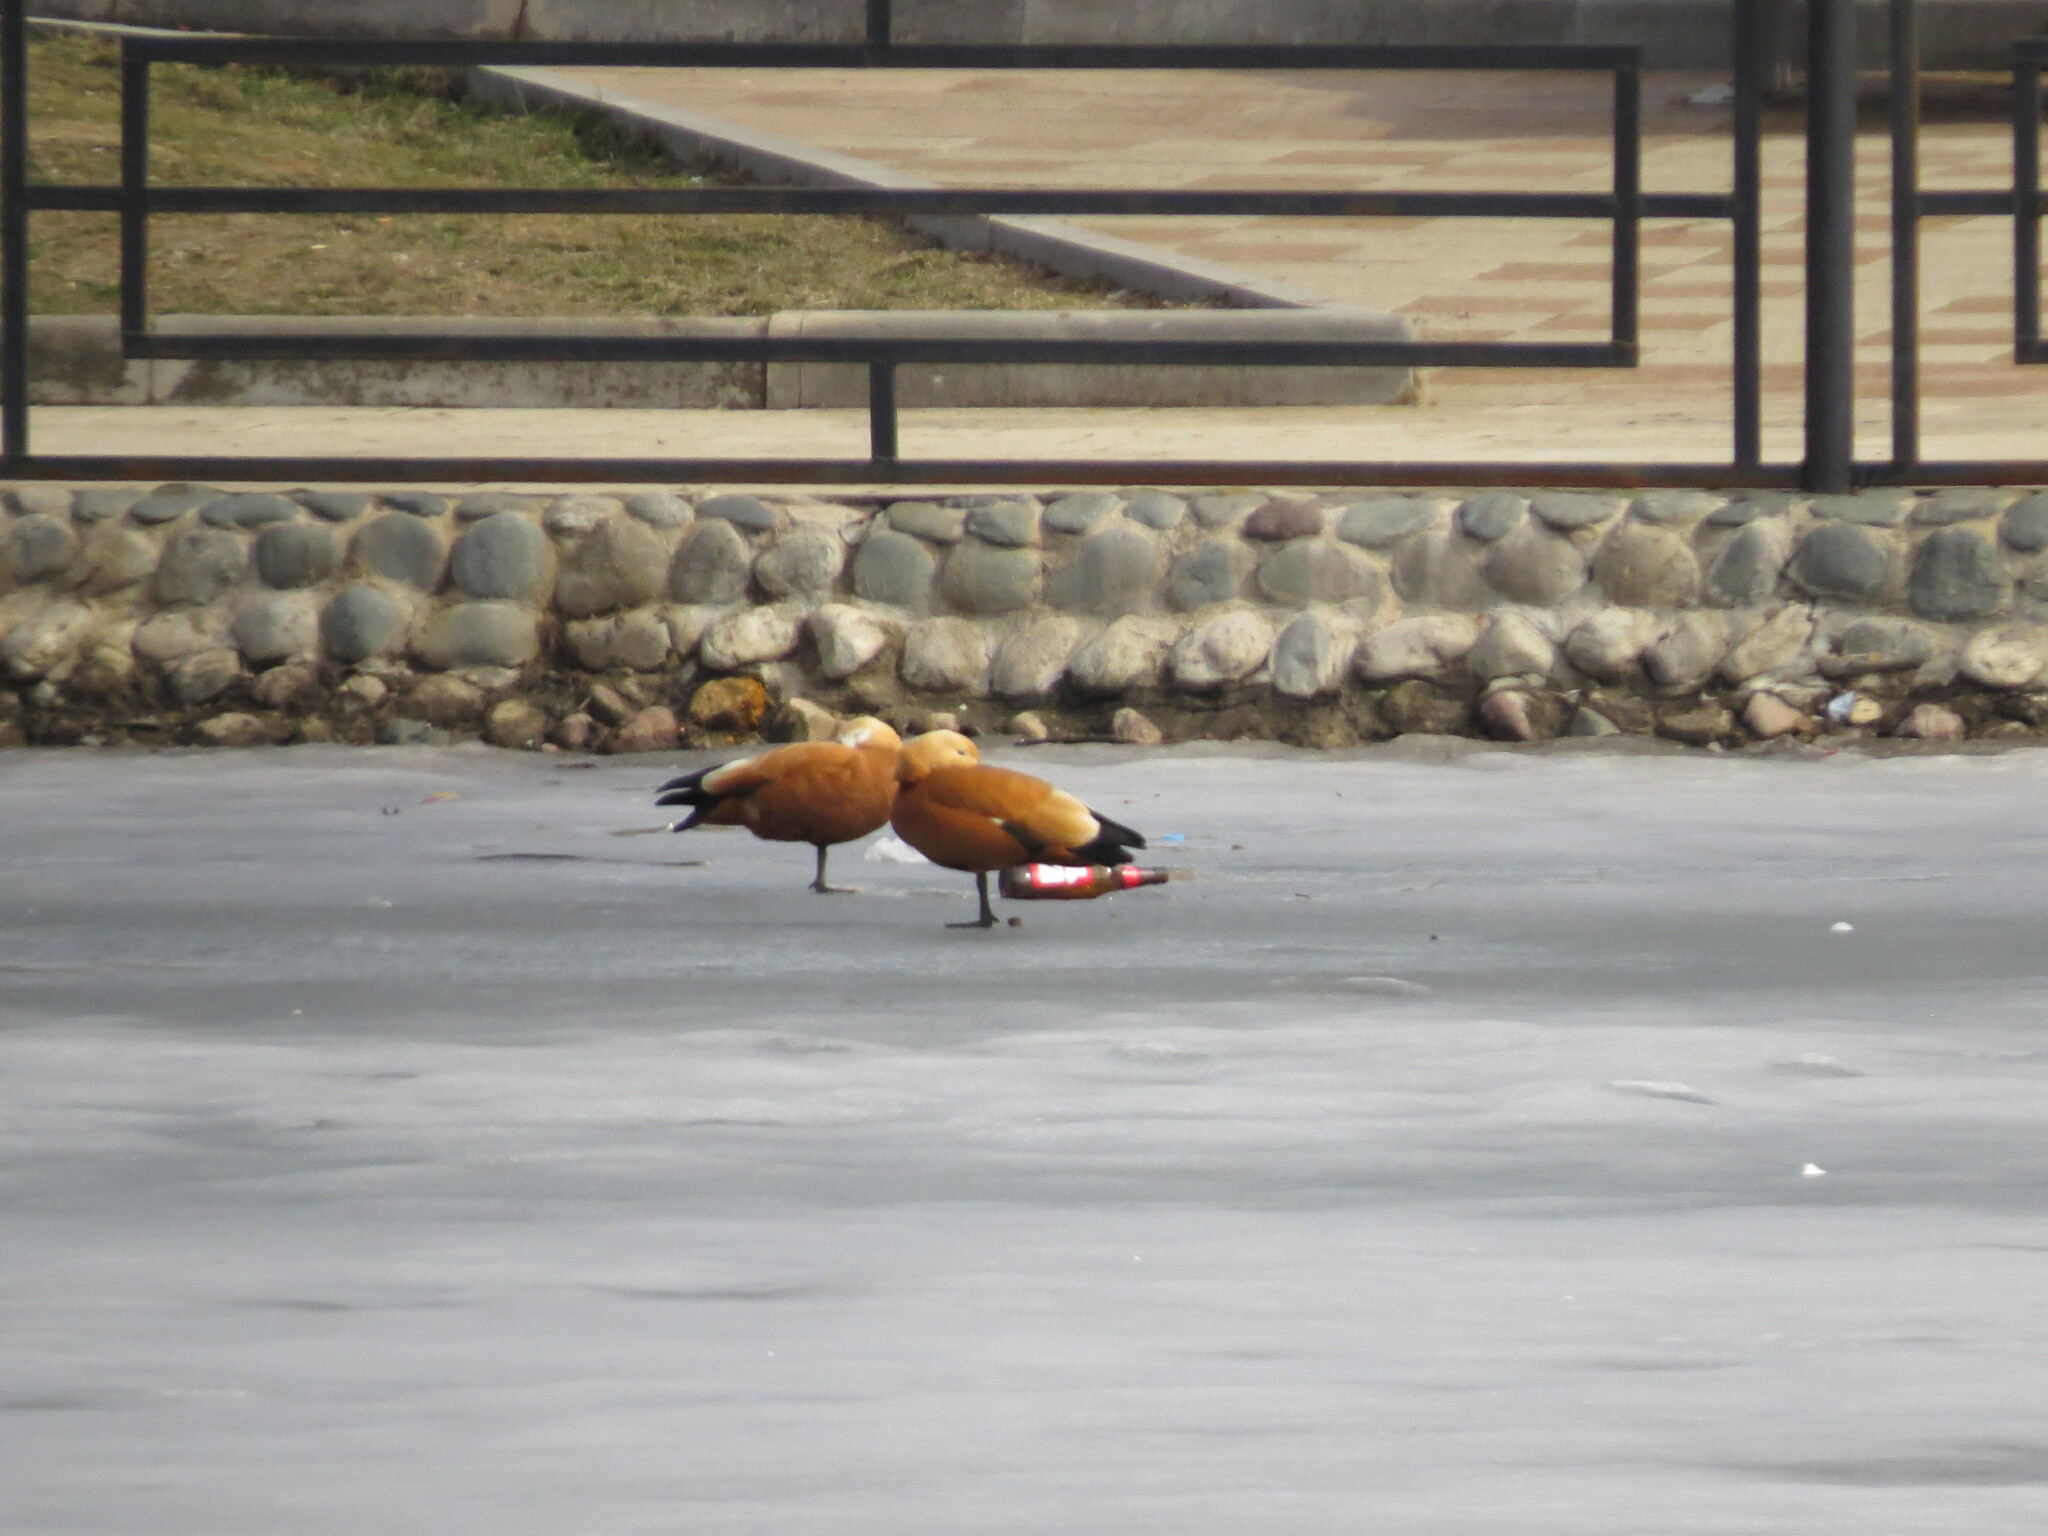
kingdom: Animalia
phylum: Chordata
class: Aves
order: Anseriformes
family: Anatidae
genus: Tadorna
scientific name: Tadorna ferruginea
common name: Ruddy shelduck
